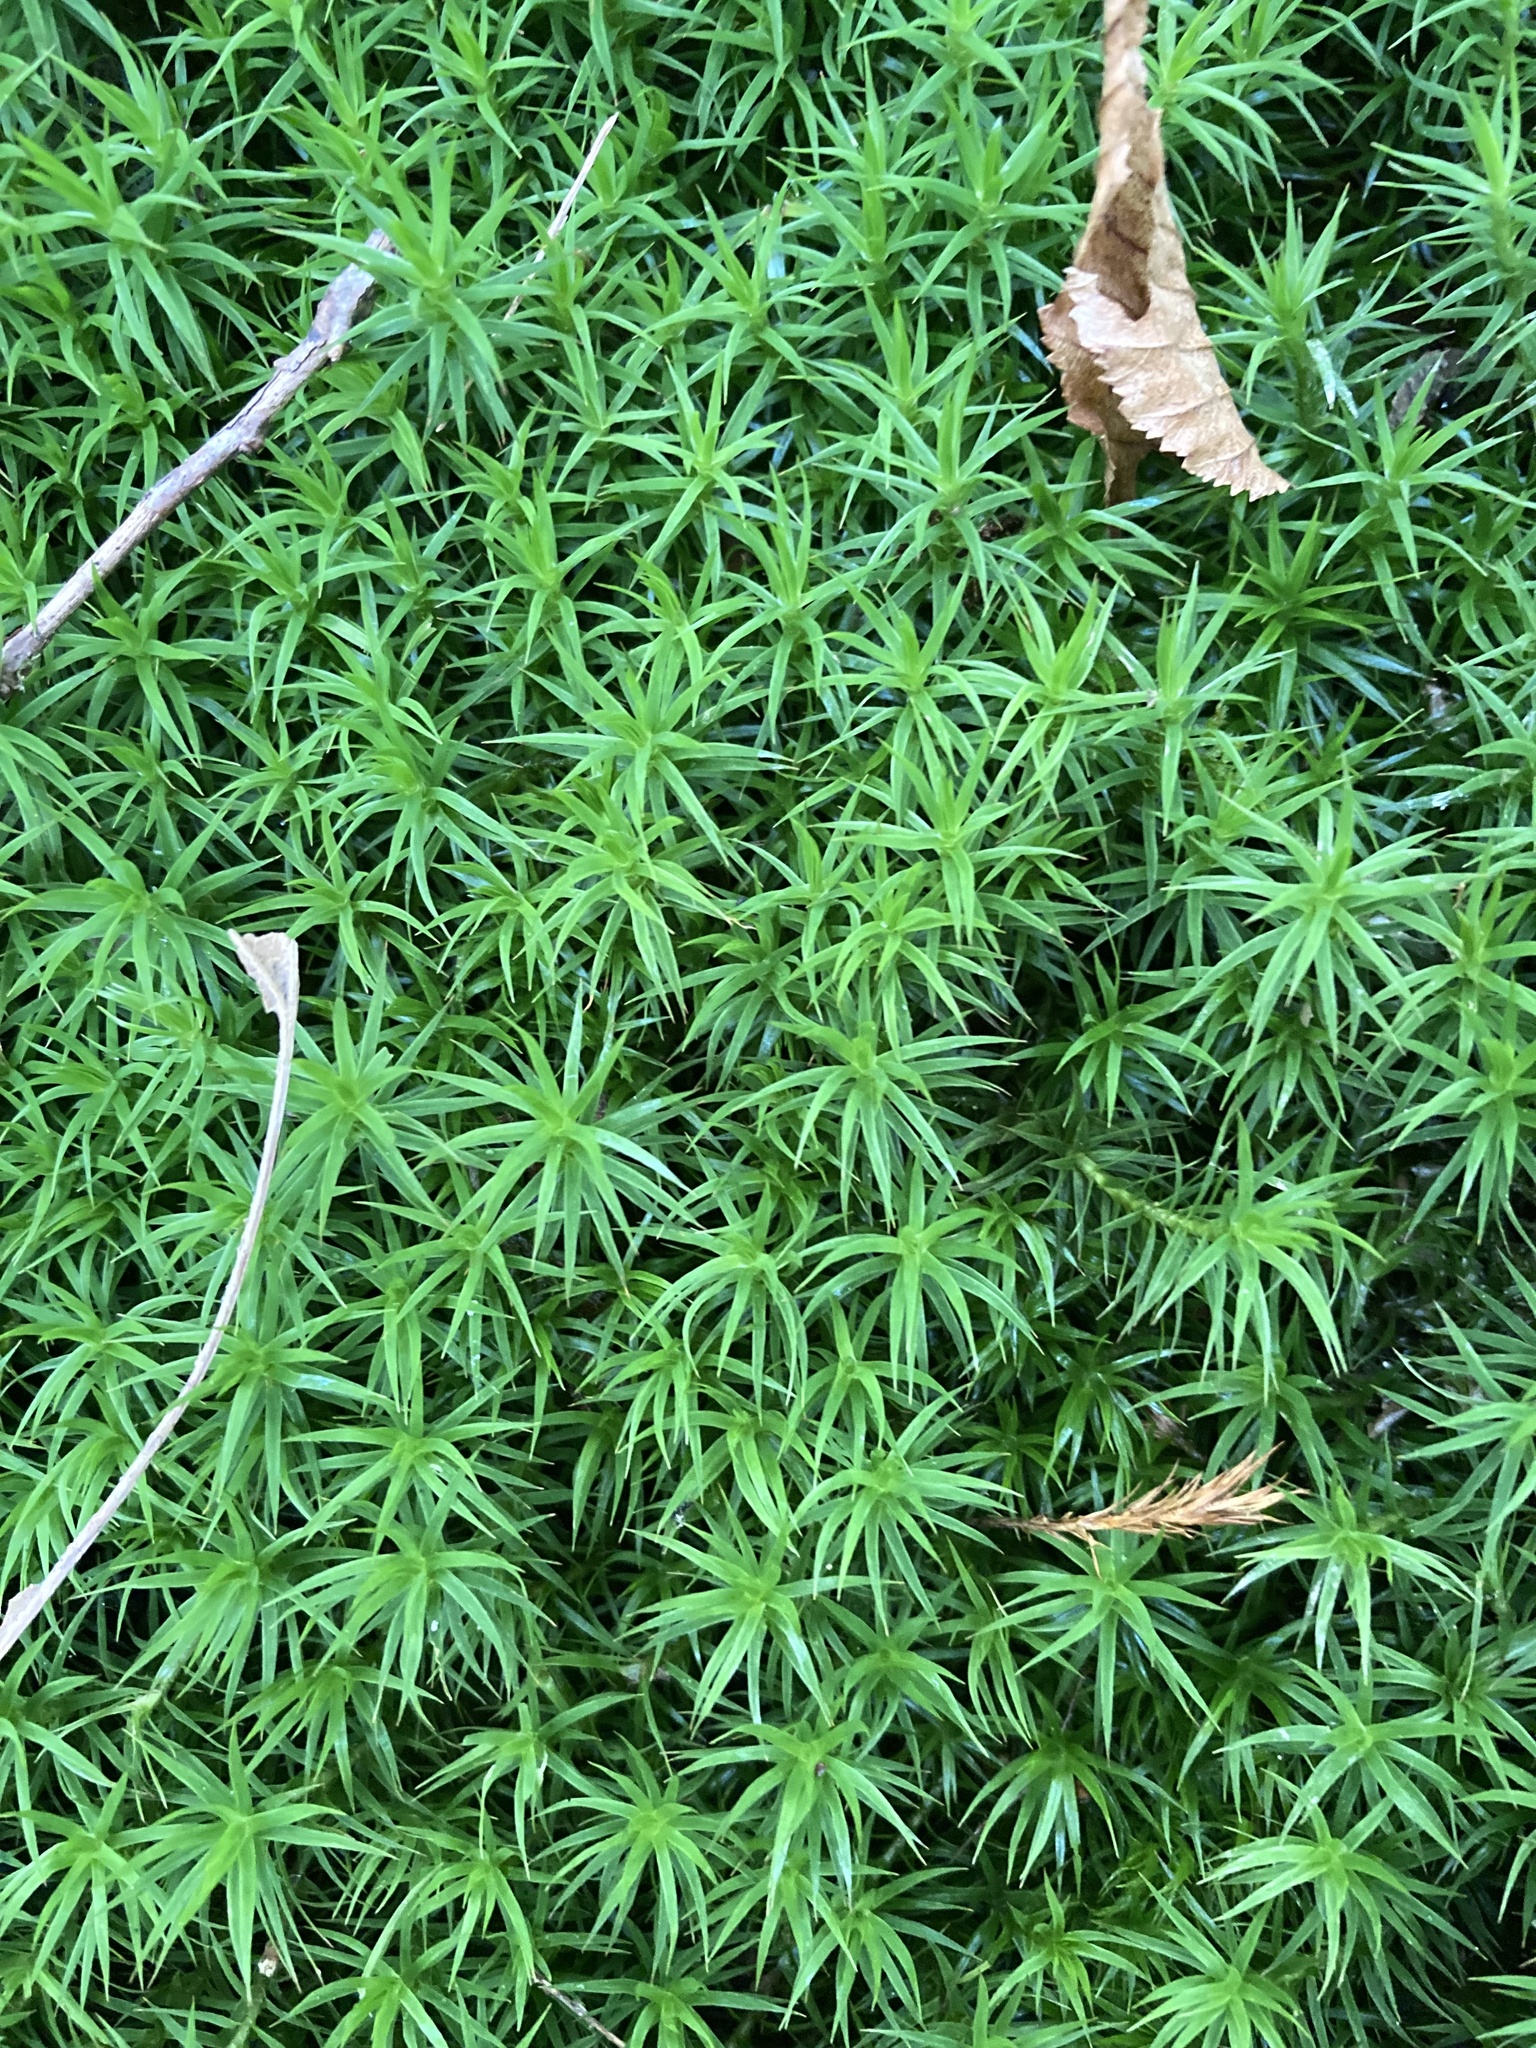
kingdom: Plantae
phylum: Bryophyta
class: Polytrichopsida
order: Polytrichales
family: Polytrichaceae
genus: Polytrichum
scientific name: Polytrichum formosum
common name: Bank haircap moss
